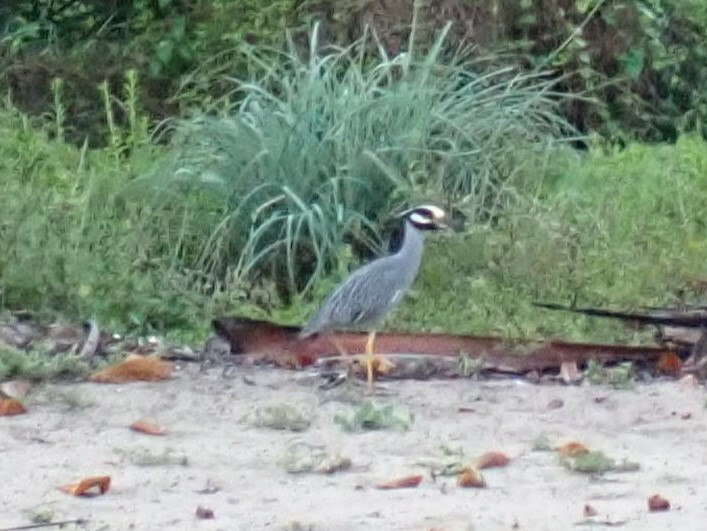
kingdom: Animalia
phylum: Chordata
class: Aves
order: Pelecaniformes
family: Ardeidae
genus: Nyctanassa
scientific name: Nyctanassa violacea
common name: Yellow-crowned night heron
